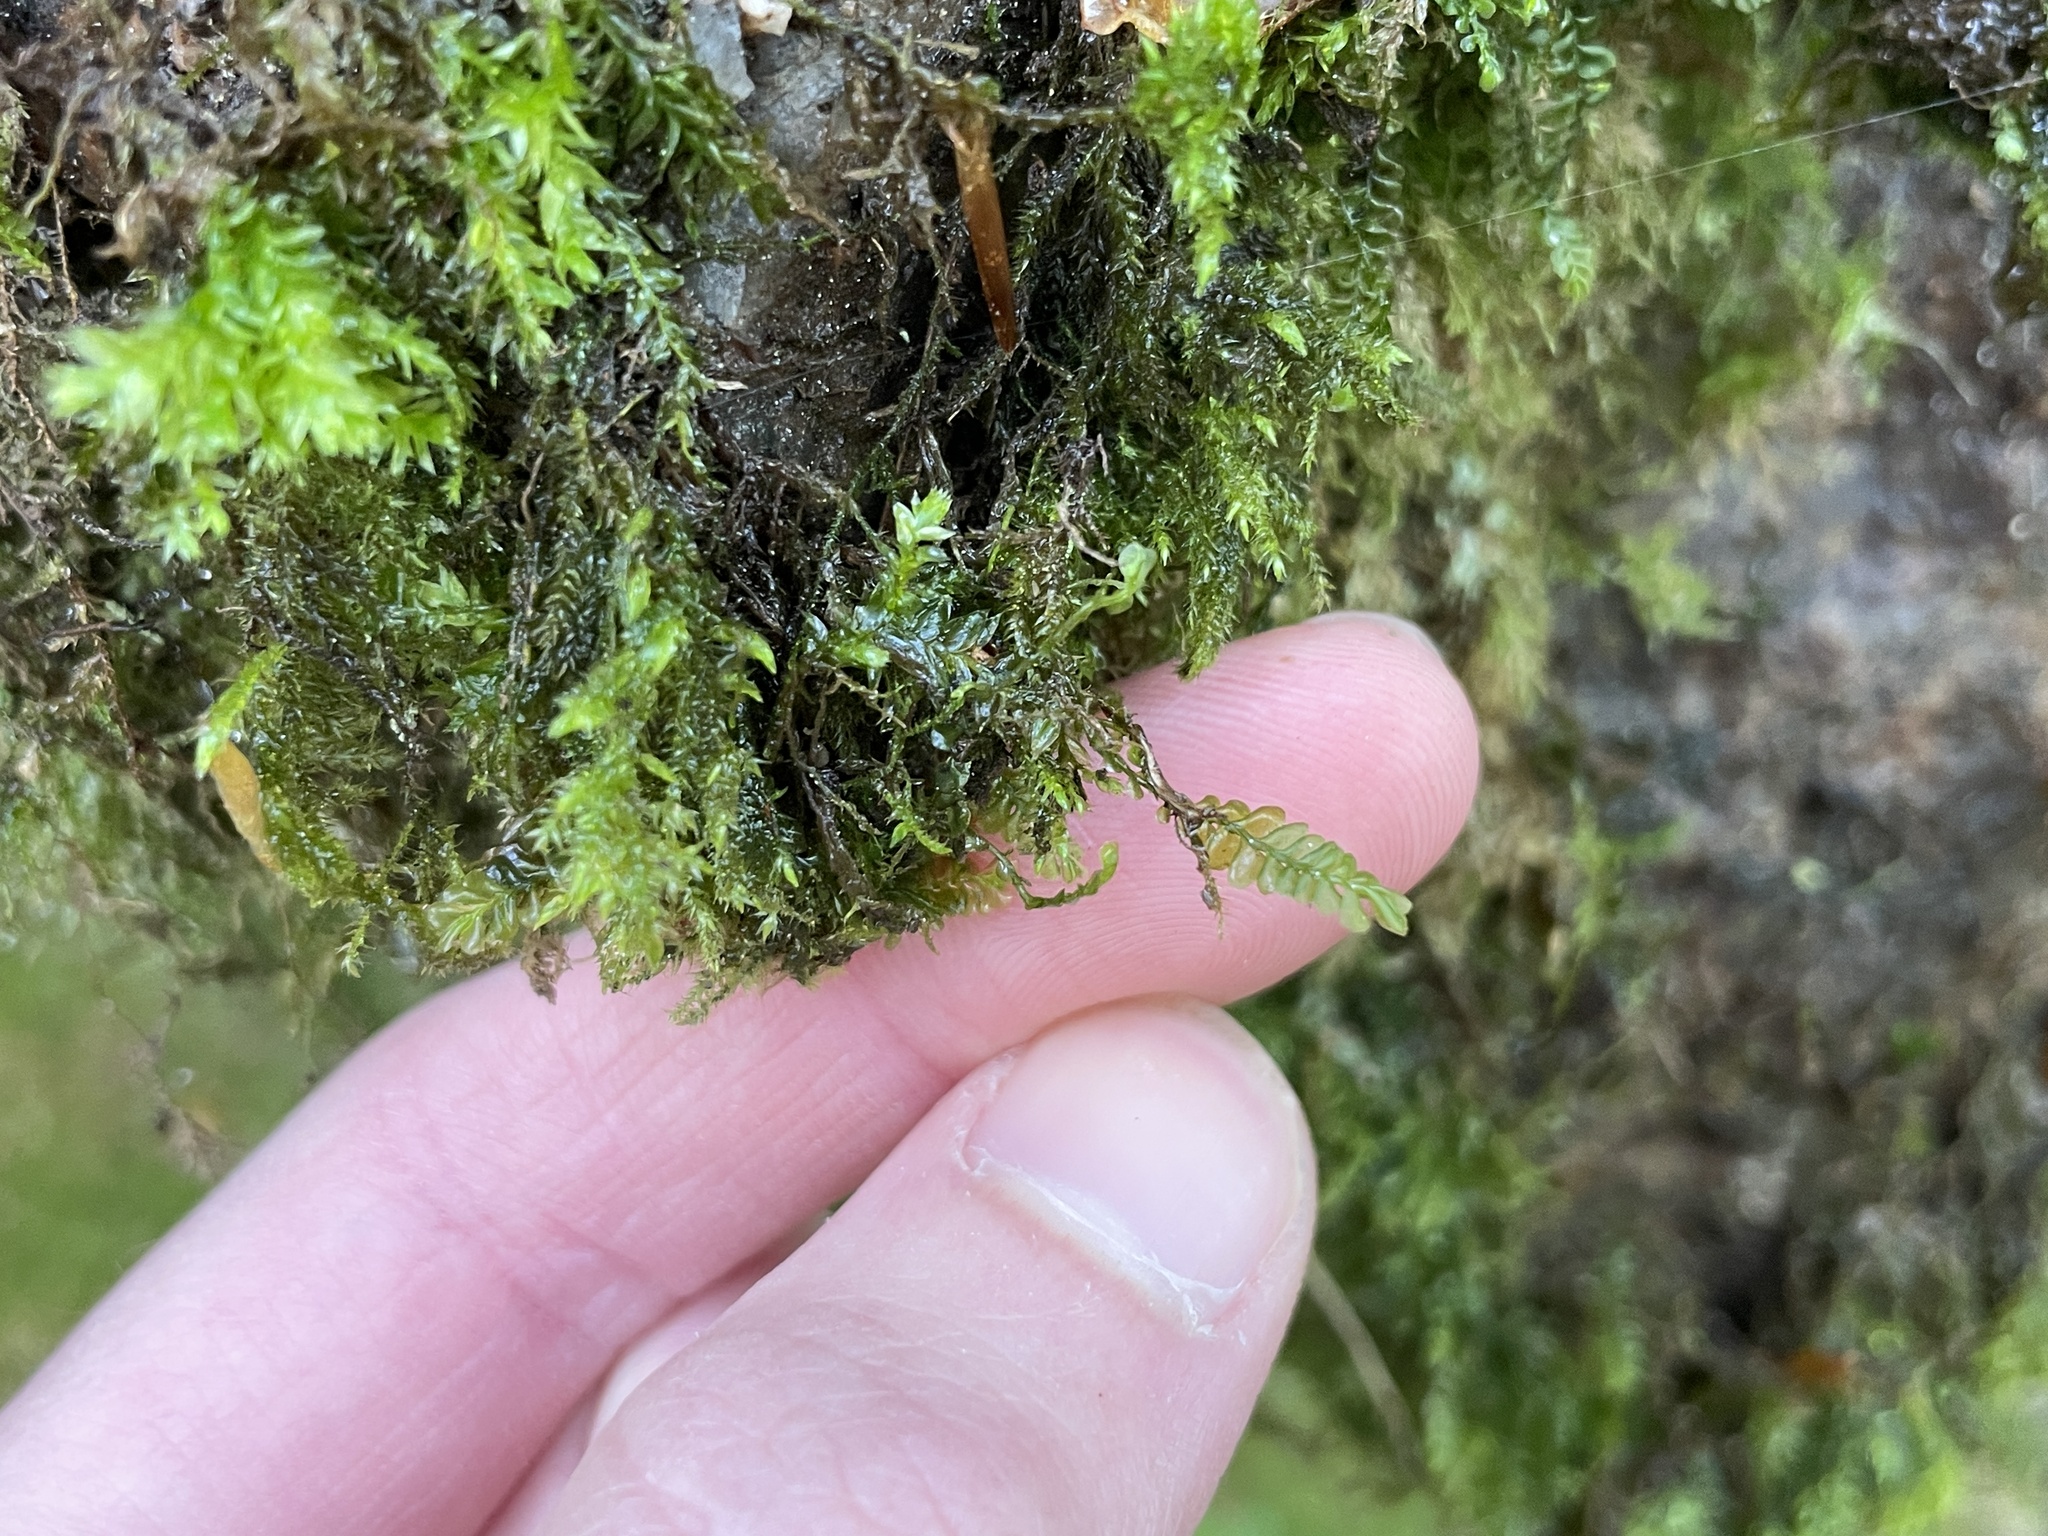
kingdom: Plantae
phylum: Marchantiophyta
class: Jungermanniopsida
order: Jungermanniales
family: Plagiochilaceae
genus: Plagiochila
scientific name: Plagiochila porelloides
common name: Lesser featherwort
